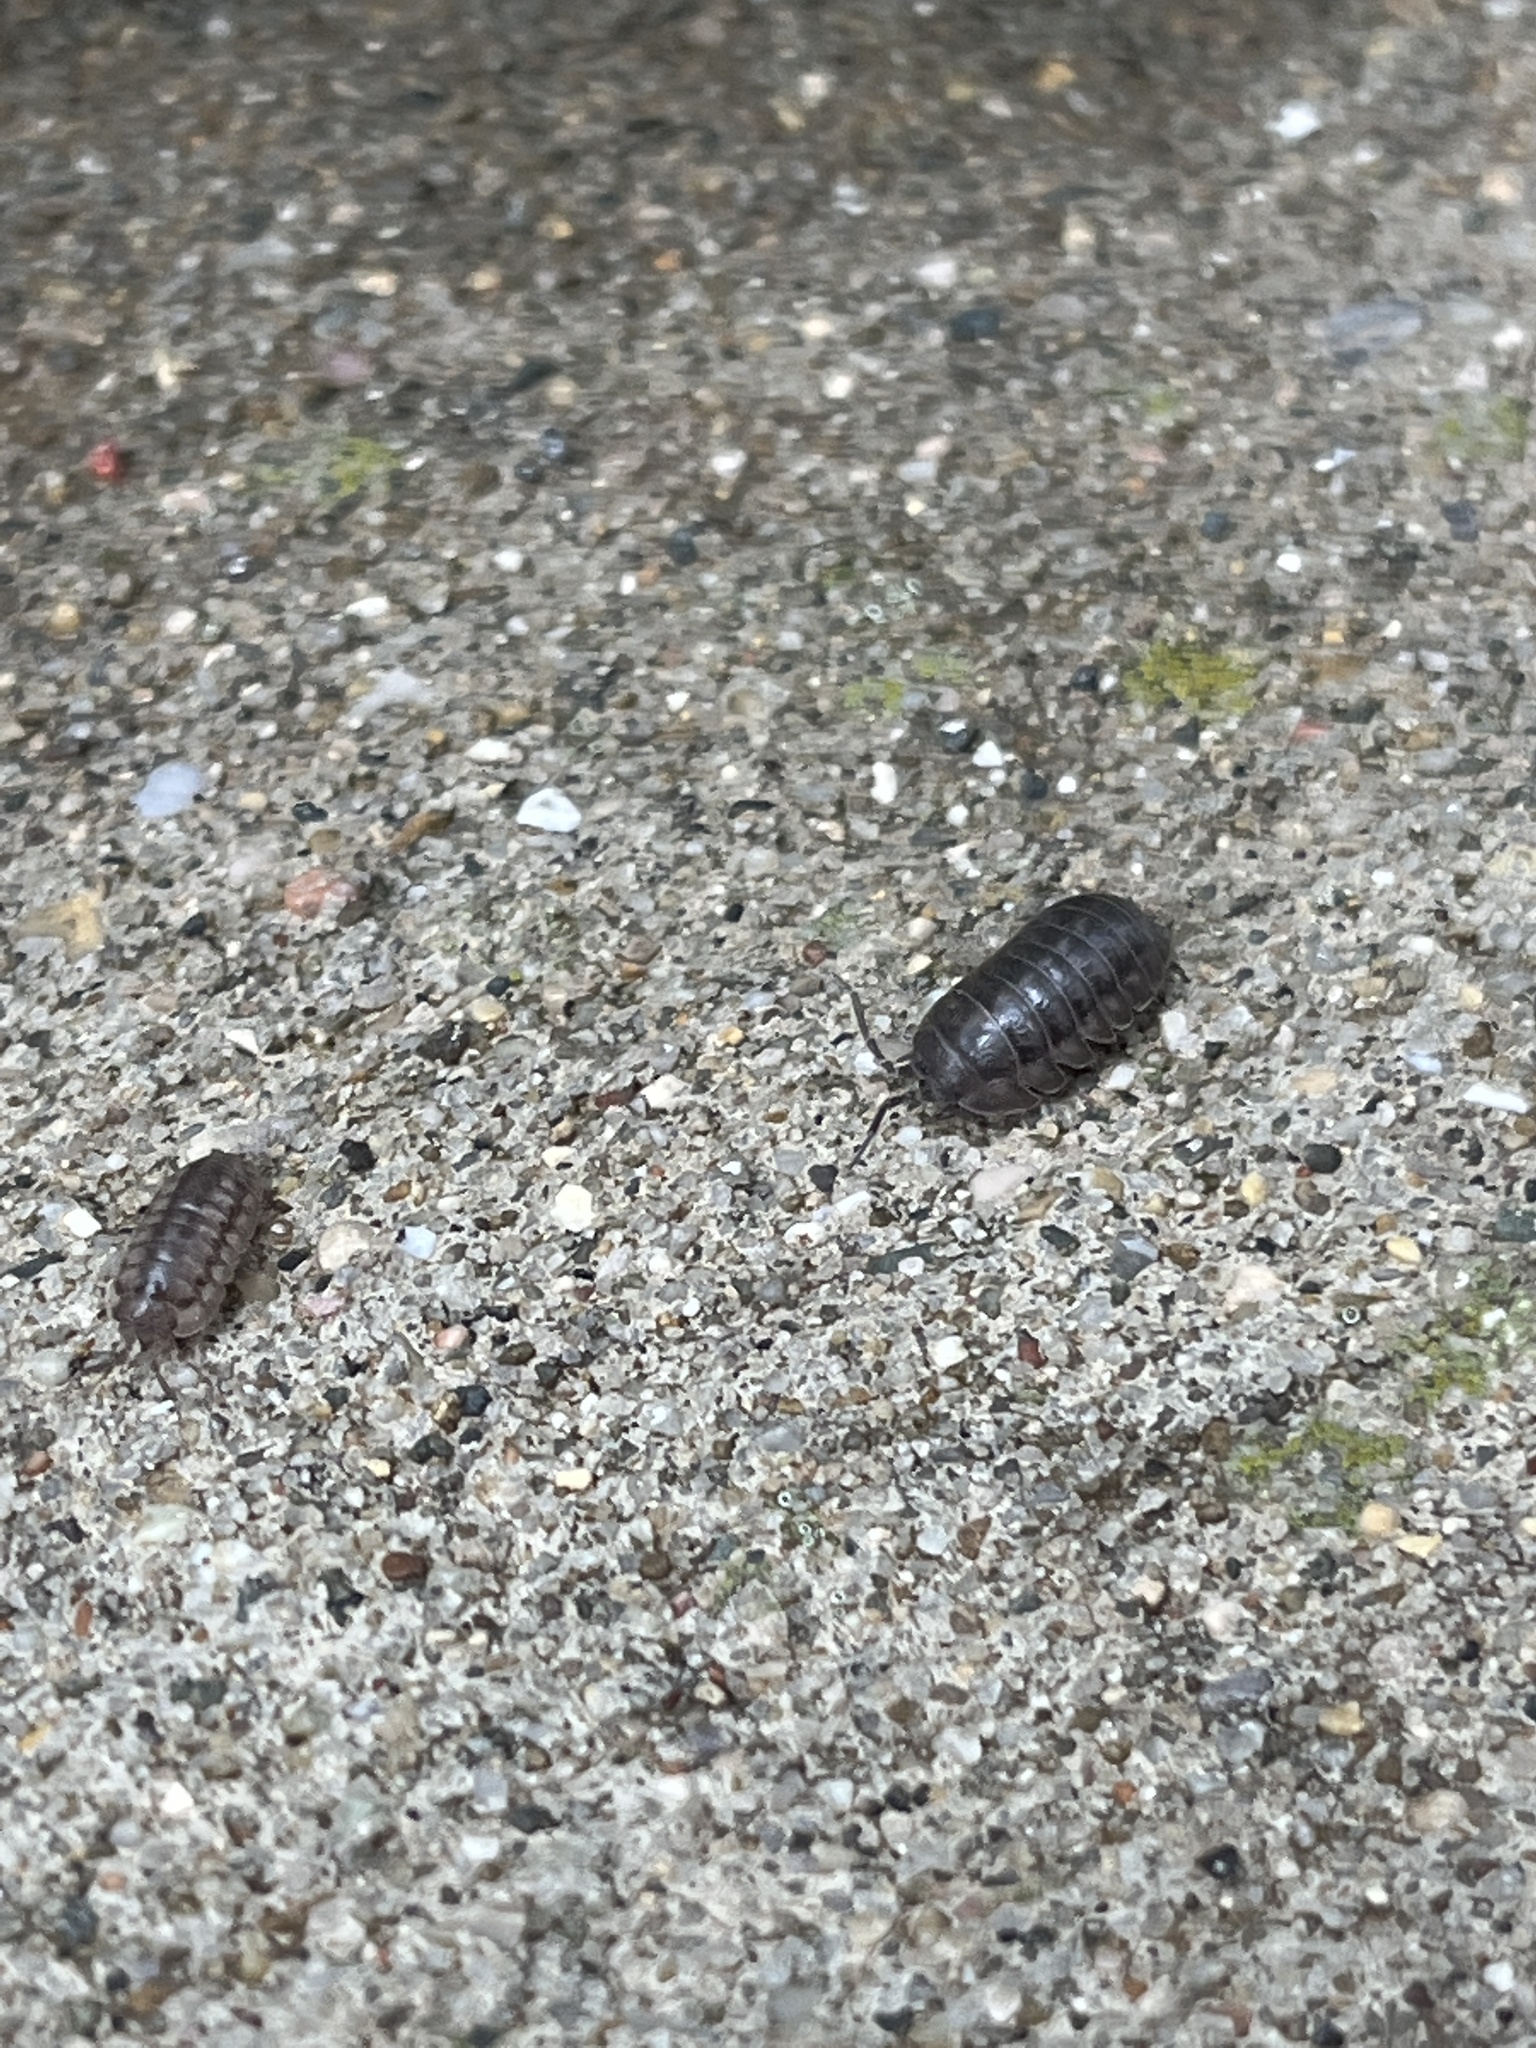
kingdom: Animalia
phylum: Arthropoda
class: Malacostraca
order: Isopoda
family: Armadillidiidae
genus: Armadillidium
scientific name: Armadillidium nasatum
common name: Isopod
